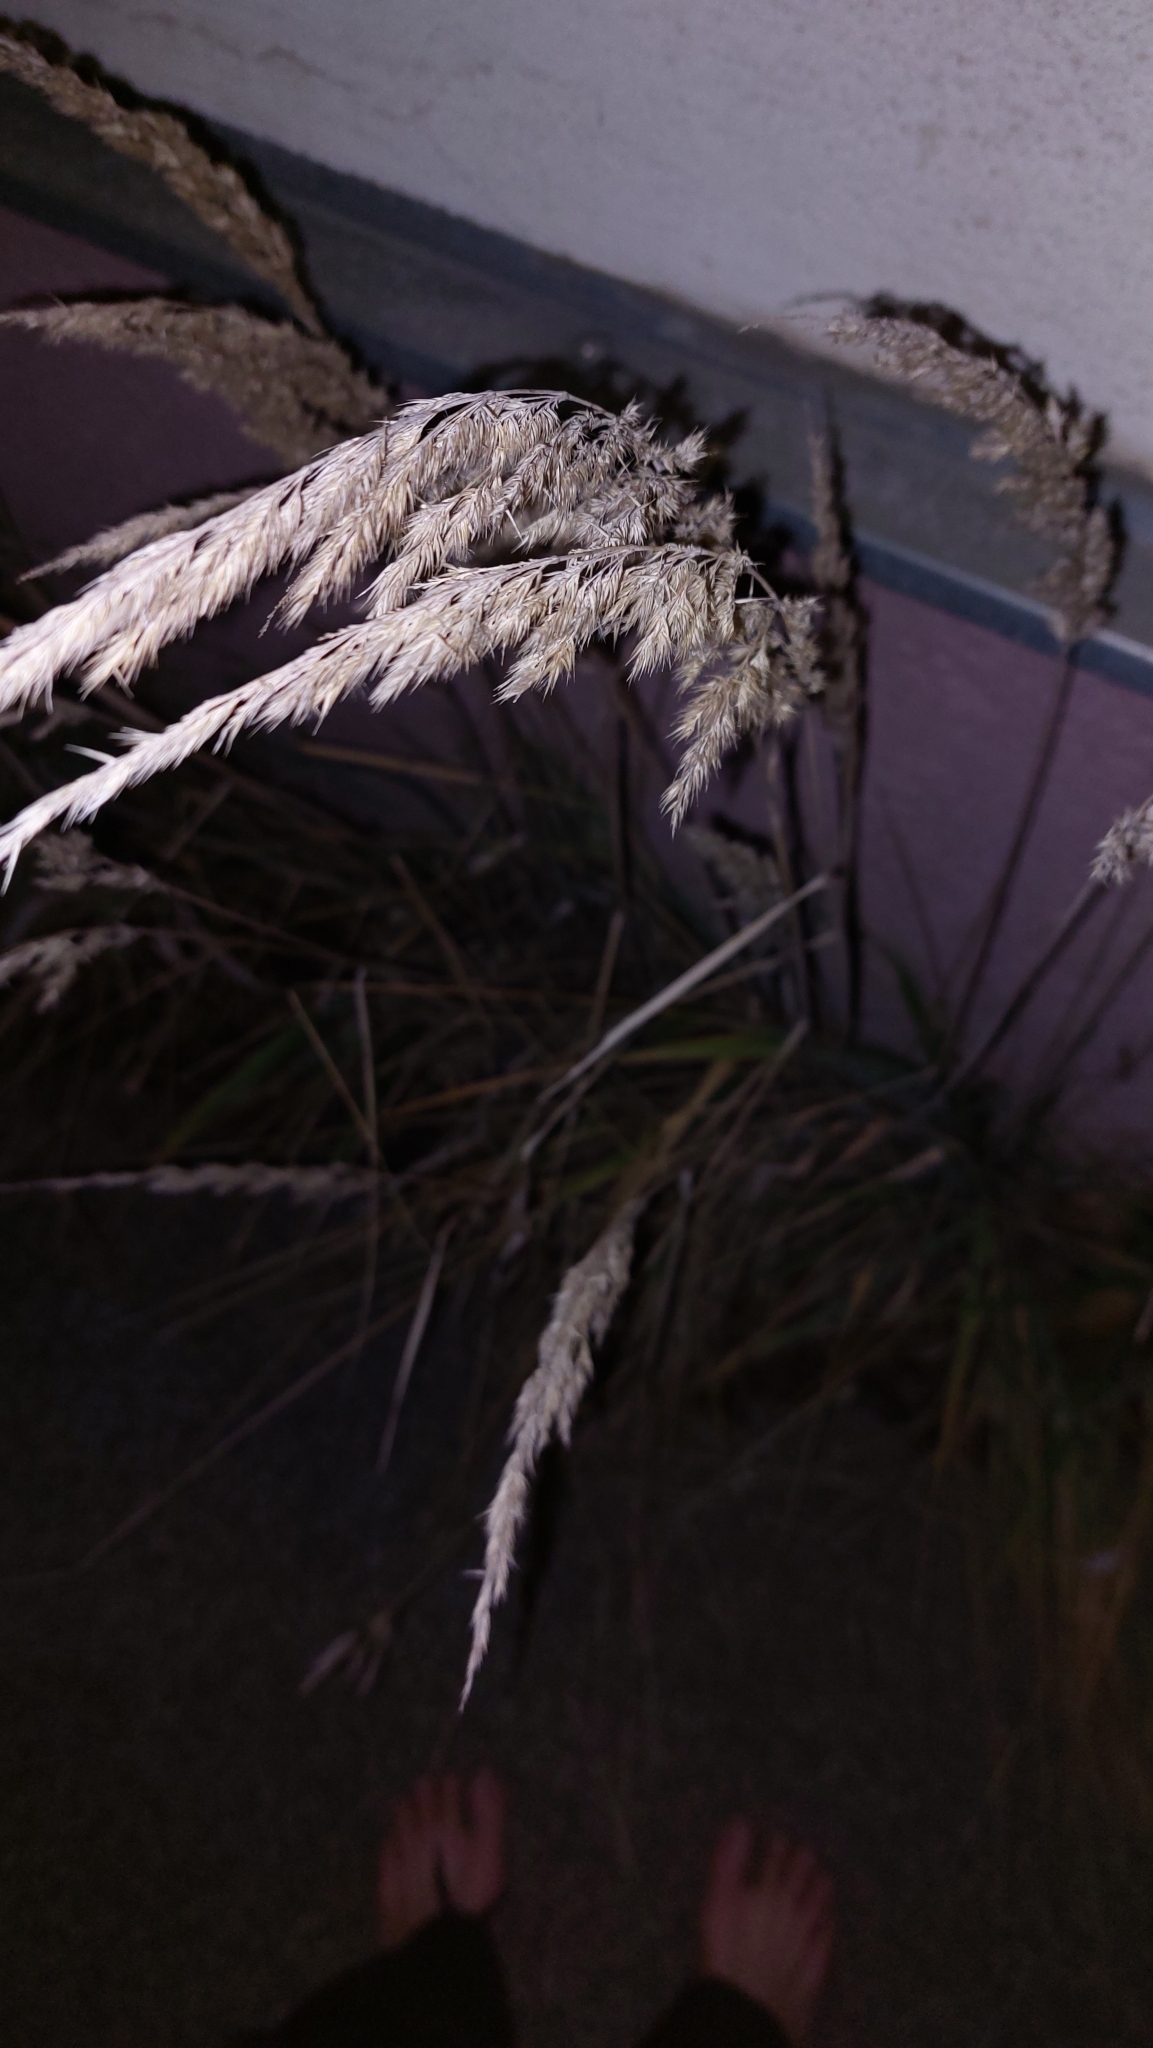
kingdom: Plantae
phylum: Tracheophyta
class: Liliopsida
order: Poales
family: Poaceae
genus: Calamagrostis
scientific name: Calamagrostis epigejos
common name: Wood small-reed
